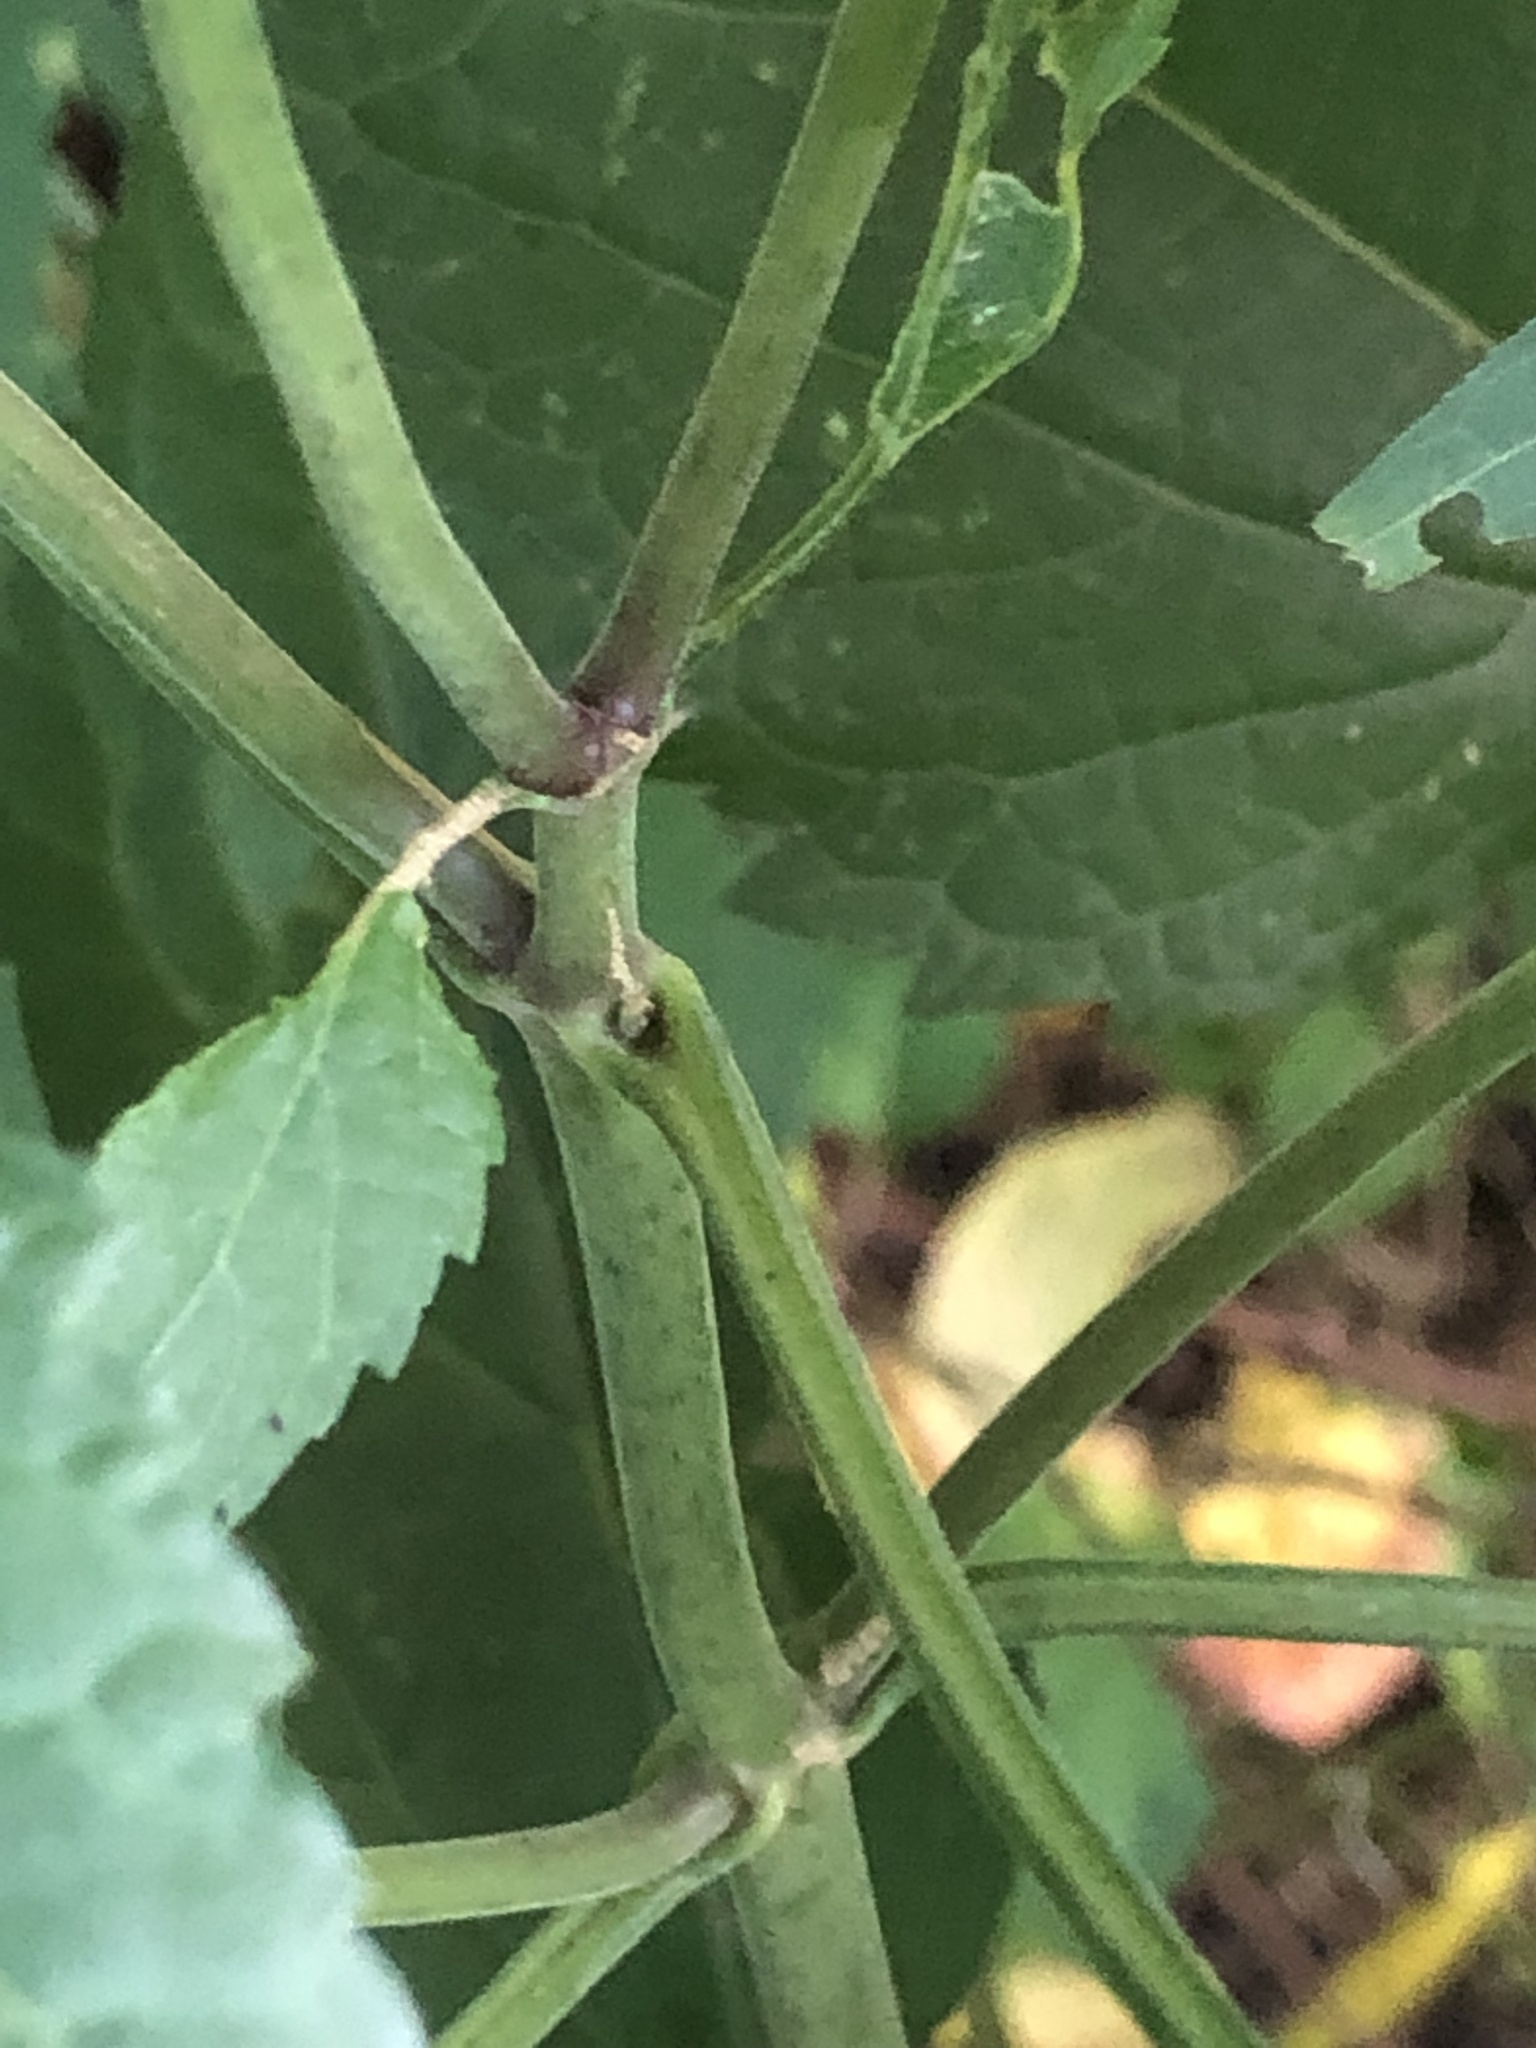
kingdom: Plantae
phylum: Tracheophyta
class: Magnoliopsida
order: Asterales
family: Asteraceae
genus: Ageratina
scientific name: Ageratina altissima
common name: White snakeroot
